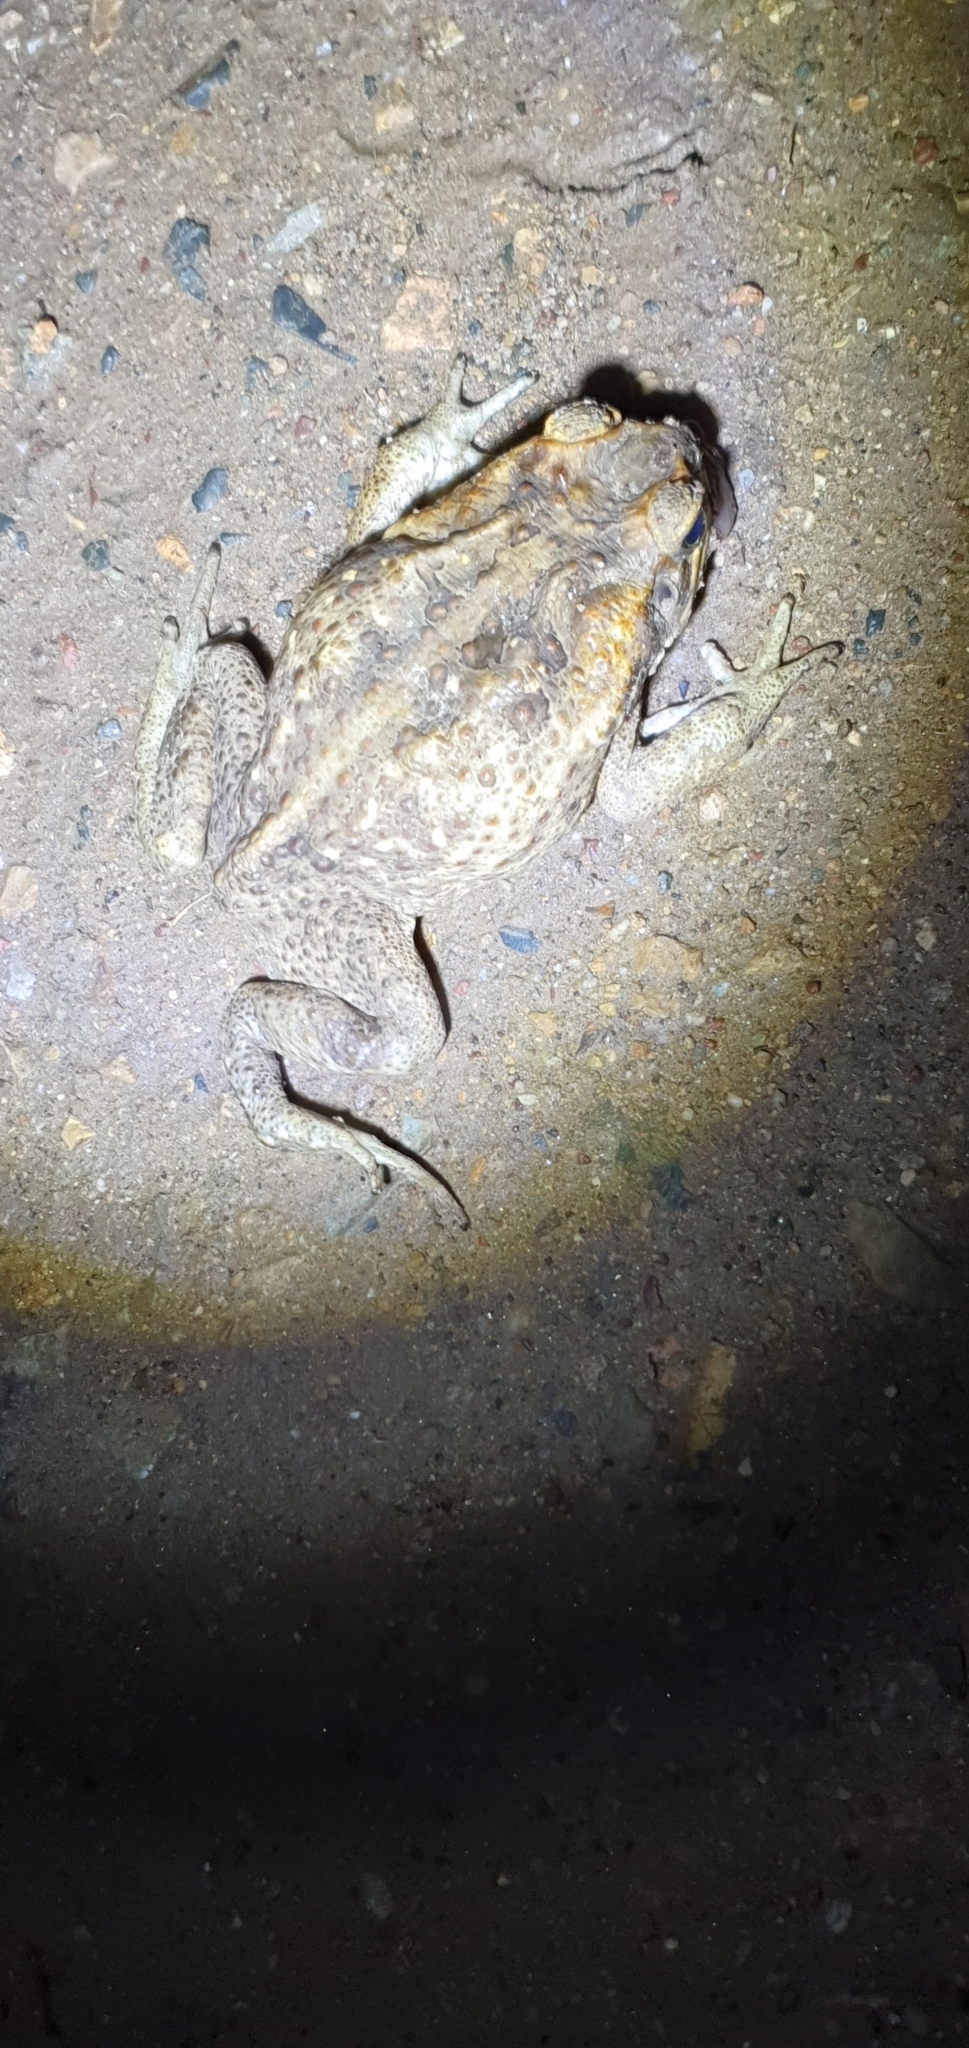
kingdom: Animalia
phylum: Chordata
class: Amphibia
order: Anura
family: Bufonidae
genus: Rhinella
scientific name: Rhinella marina
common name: Cane toad
